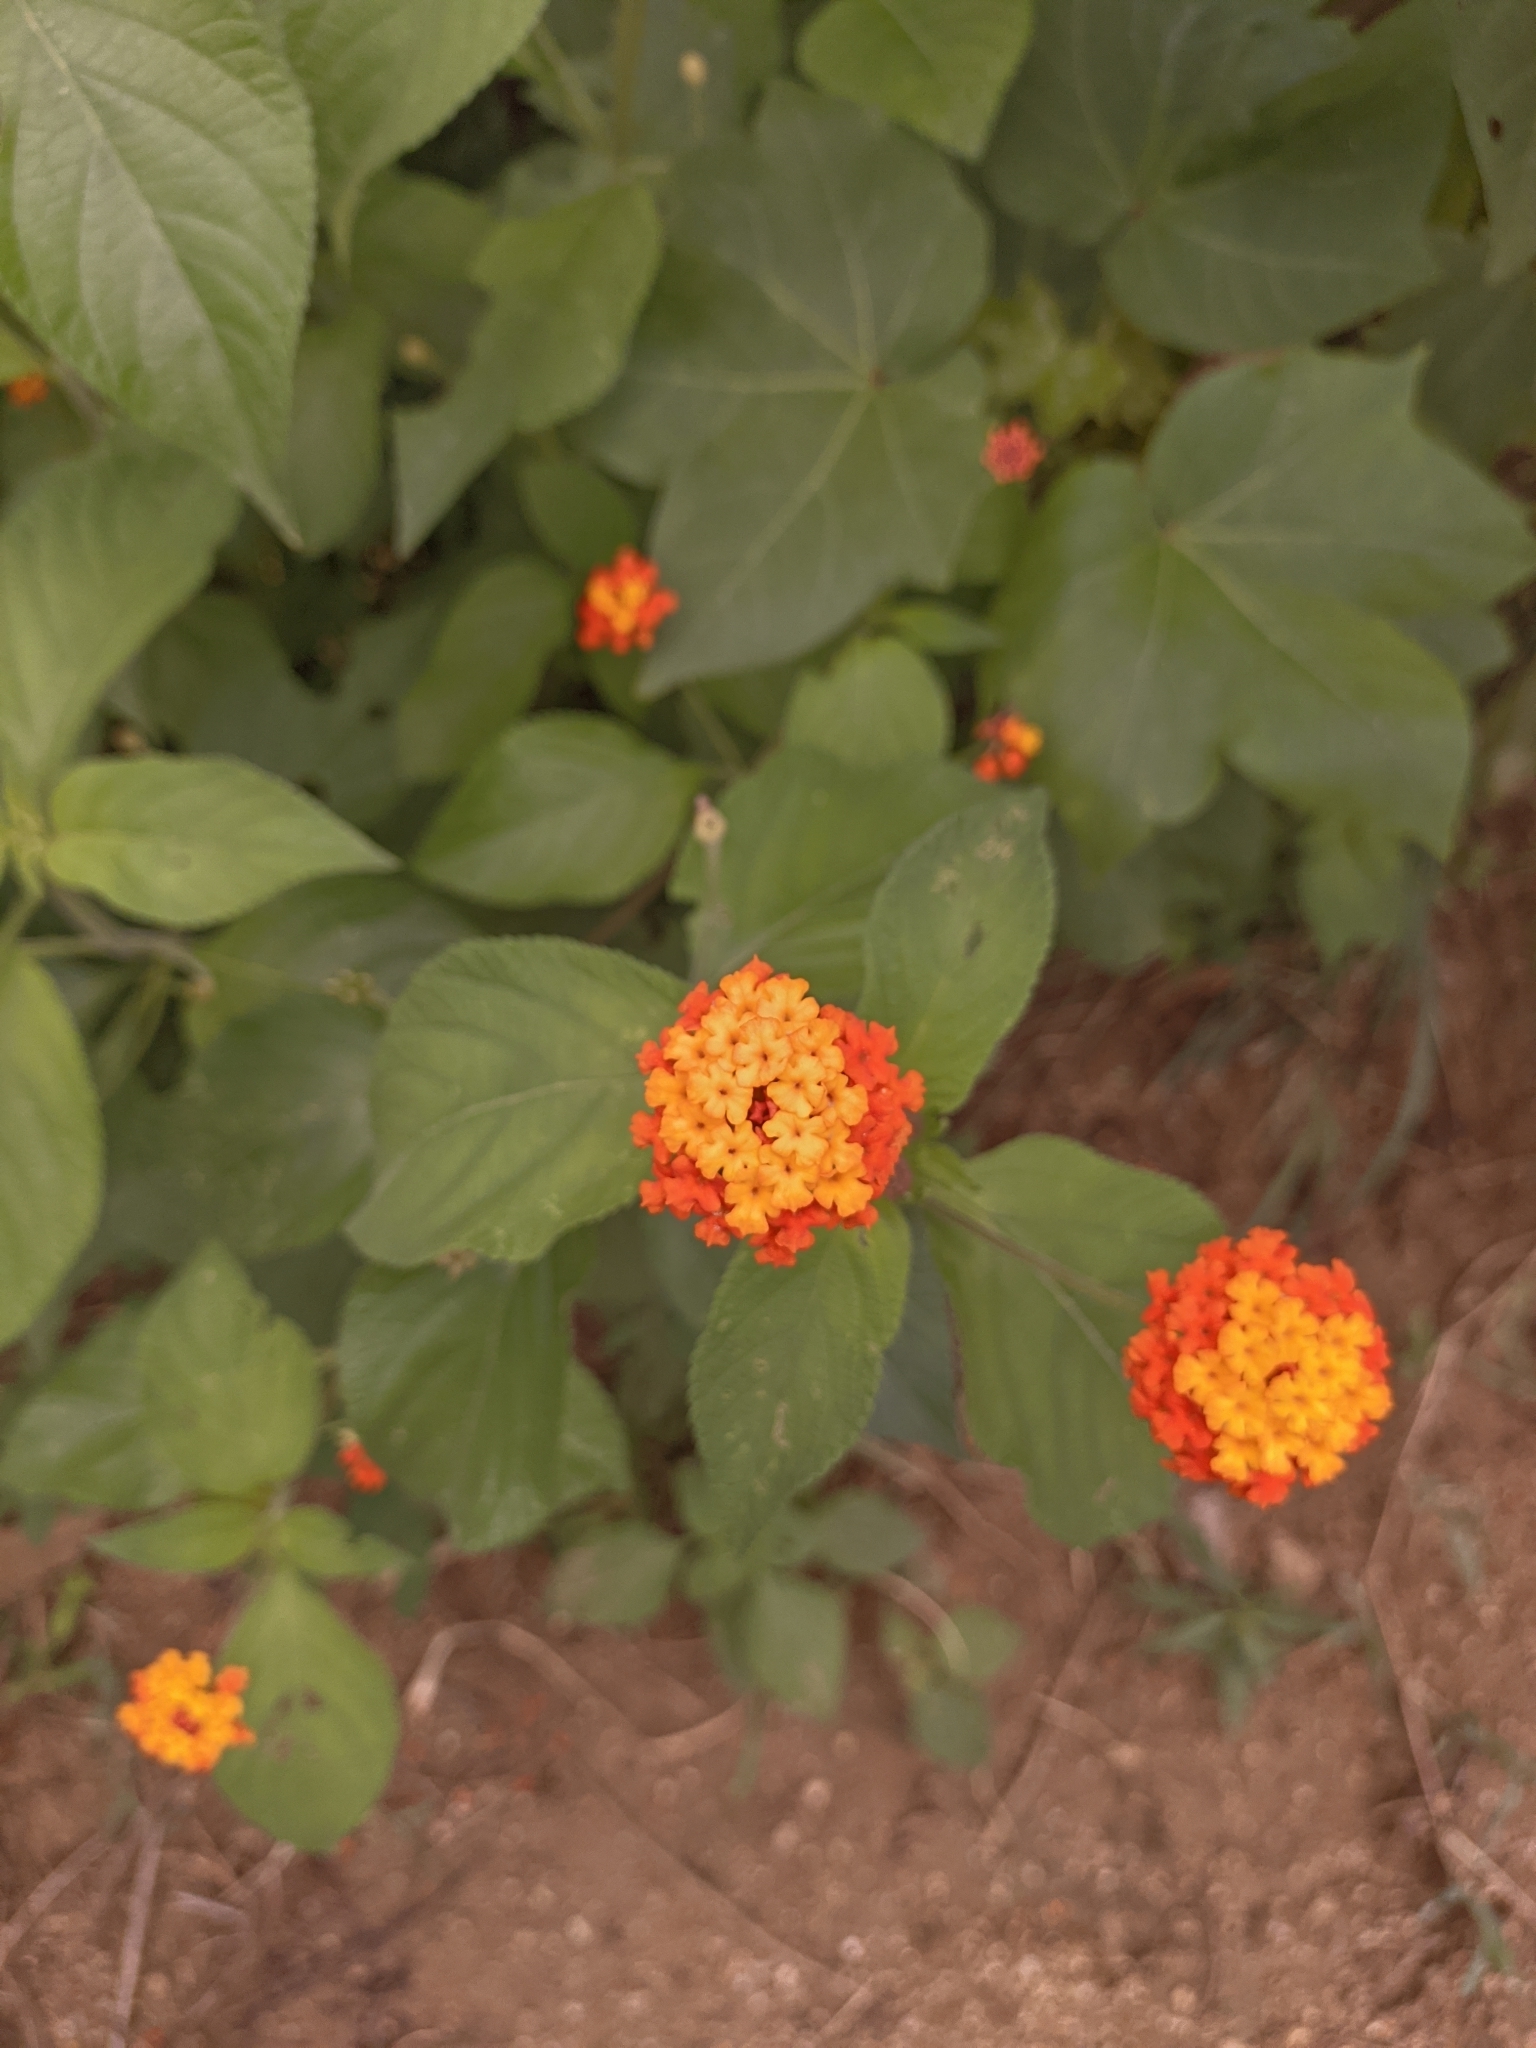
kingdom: Plantae
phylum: Tracheophyta
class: Magnoliopsida
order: Lamiales
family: Verbenaceae
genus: Lantana
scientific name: Lantana camara
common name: Lantana
